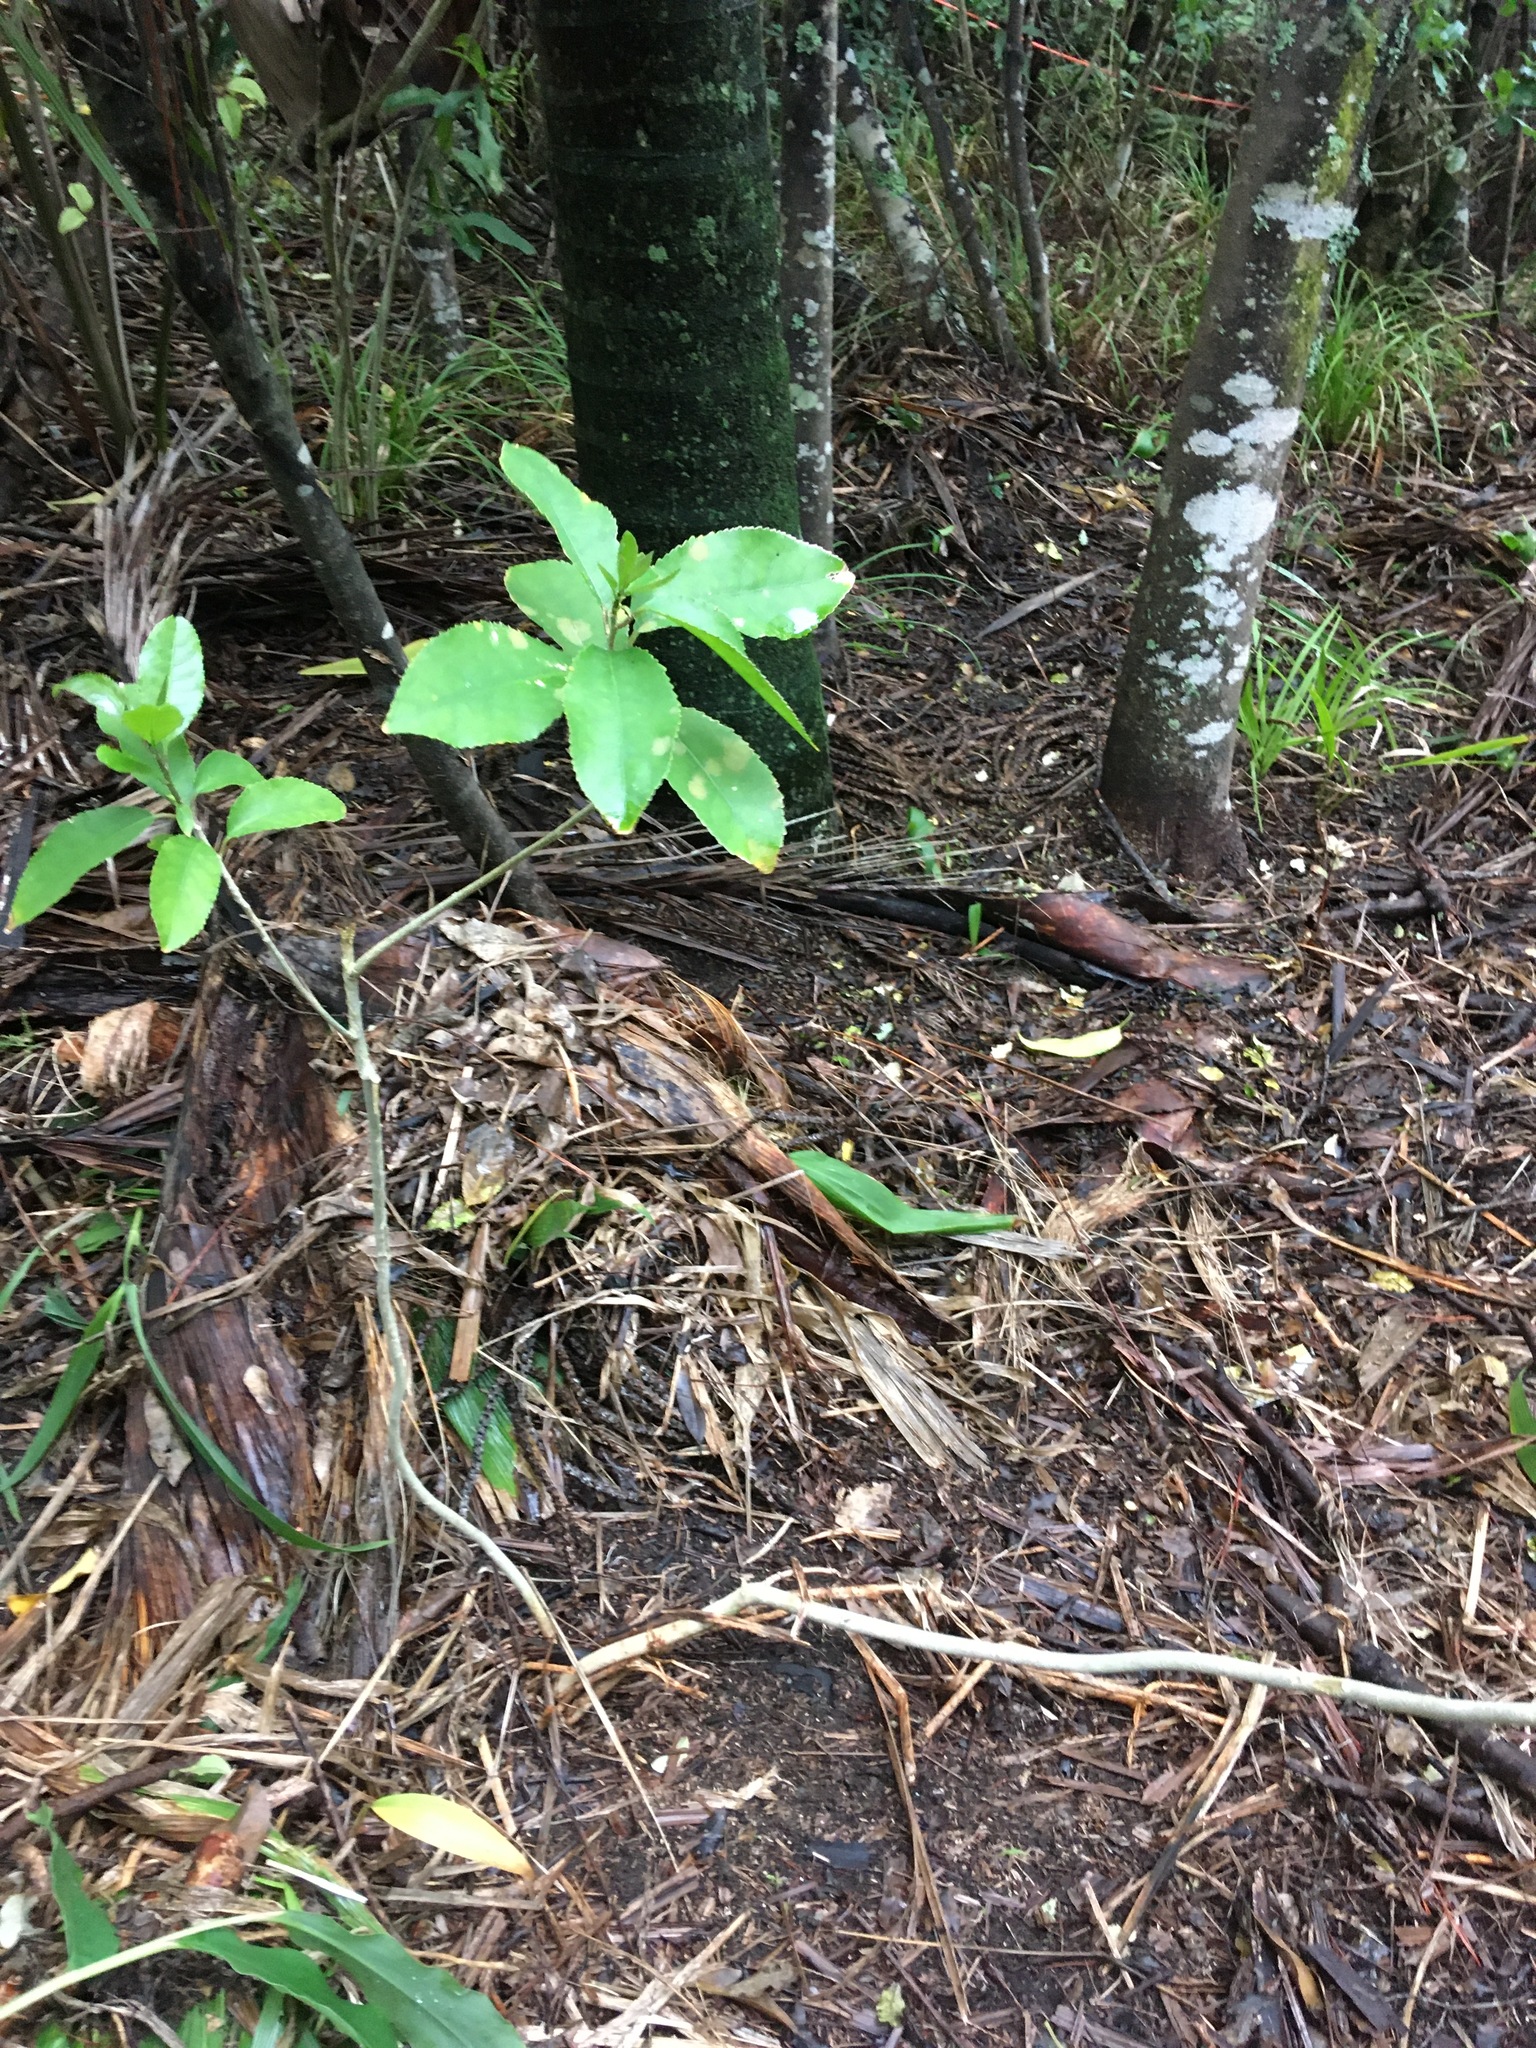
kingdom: Plantae
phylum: Tracheophyta
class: Magnoliopsida
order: Malpighiales
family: Violaceae
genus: Melicytus
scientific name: Melicytus ramiflorus
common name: Mahoe
